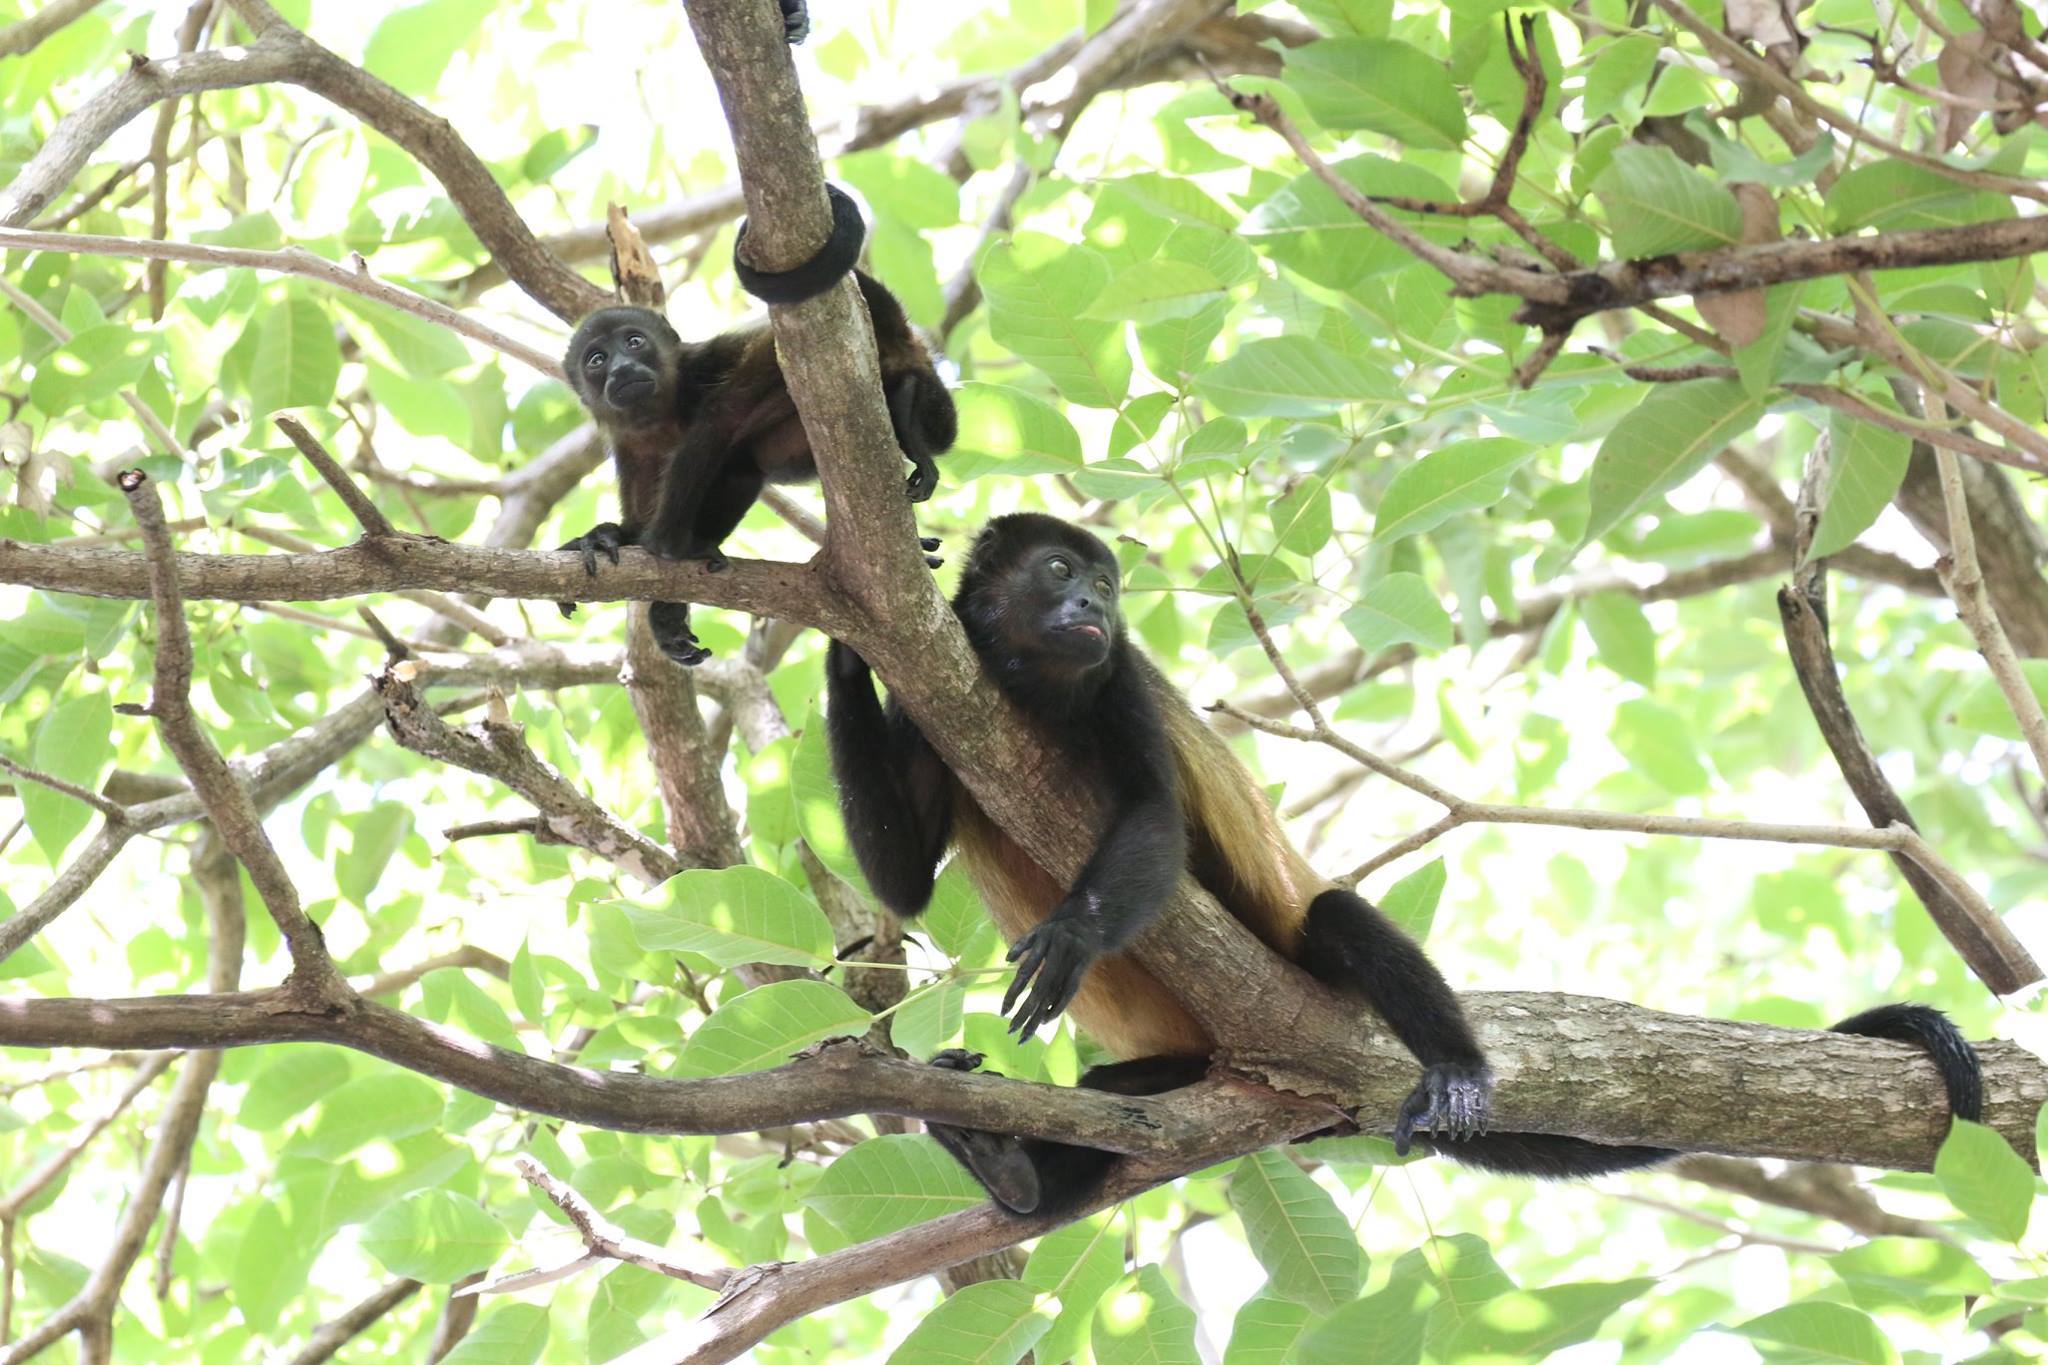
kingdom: Animalia
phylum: Chordata
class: Mammalia
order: Primates
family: Atelidae
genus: Alouatta
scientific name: Alouatta palliata
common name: Mantled howler
